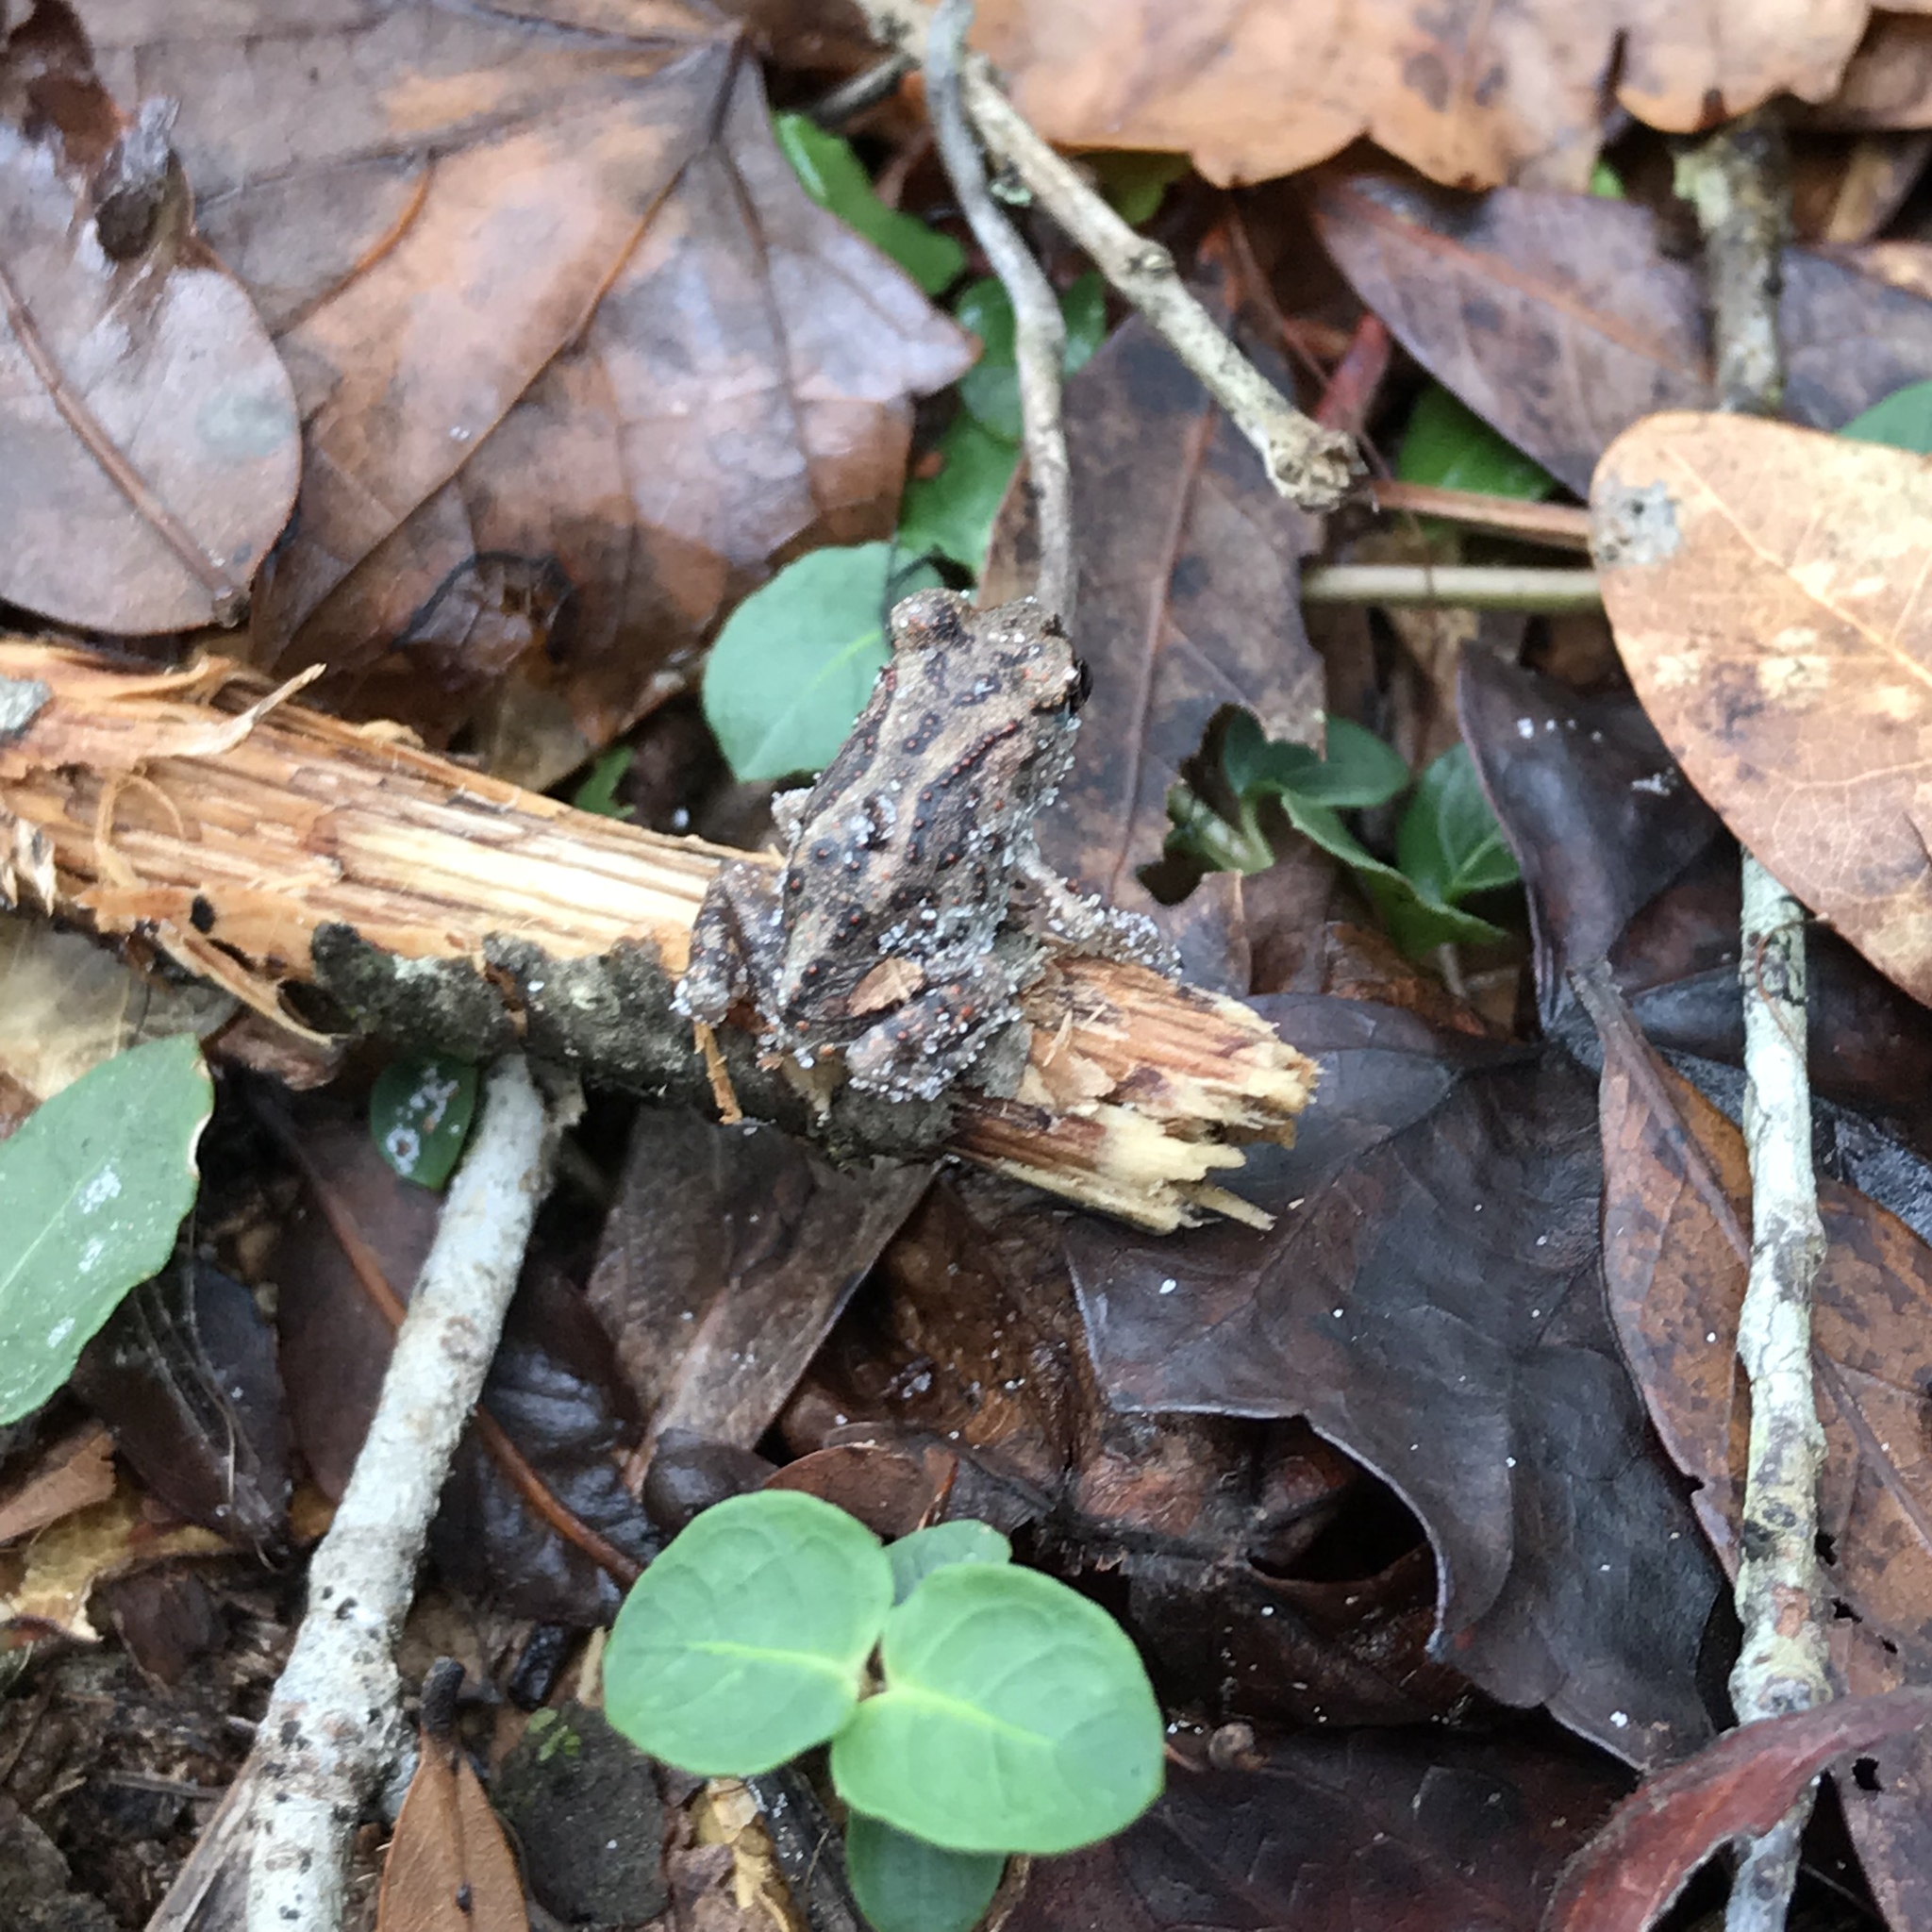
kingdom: Animalia
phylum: Chordata
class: Amphibia
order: Anura
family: Scaphiopodidae
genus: Scaphiopus
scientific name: Scaphiopus holbrookii
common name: Eastern spadefoot toad
